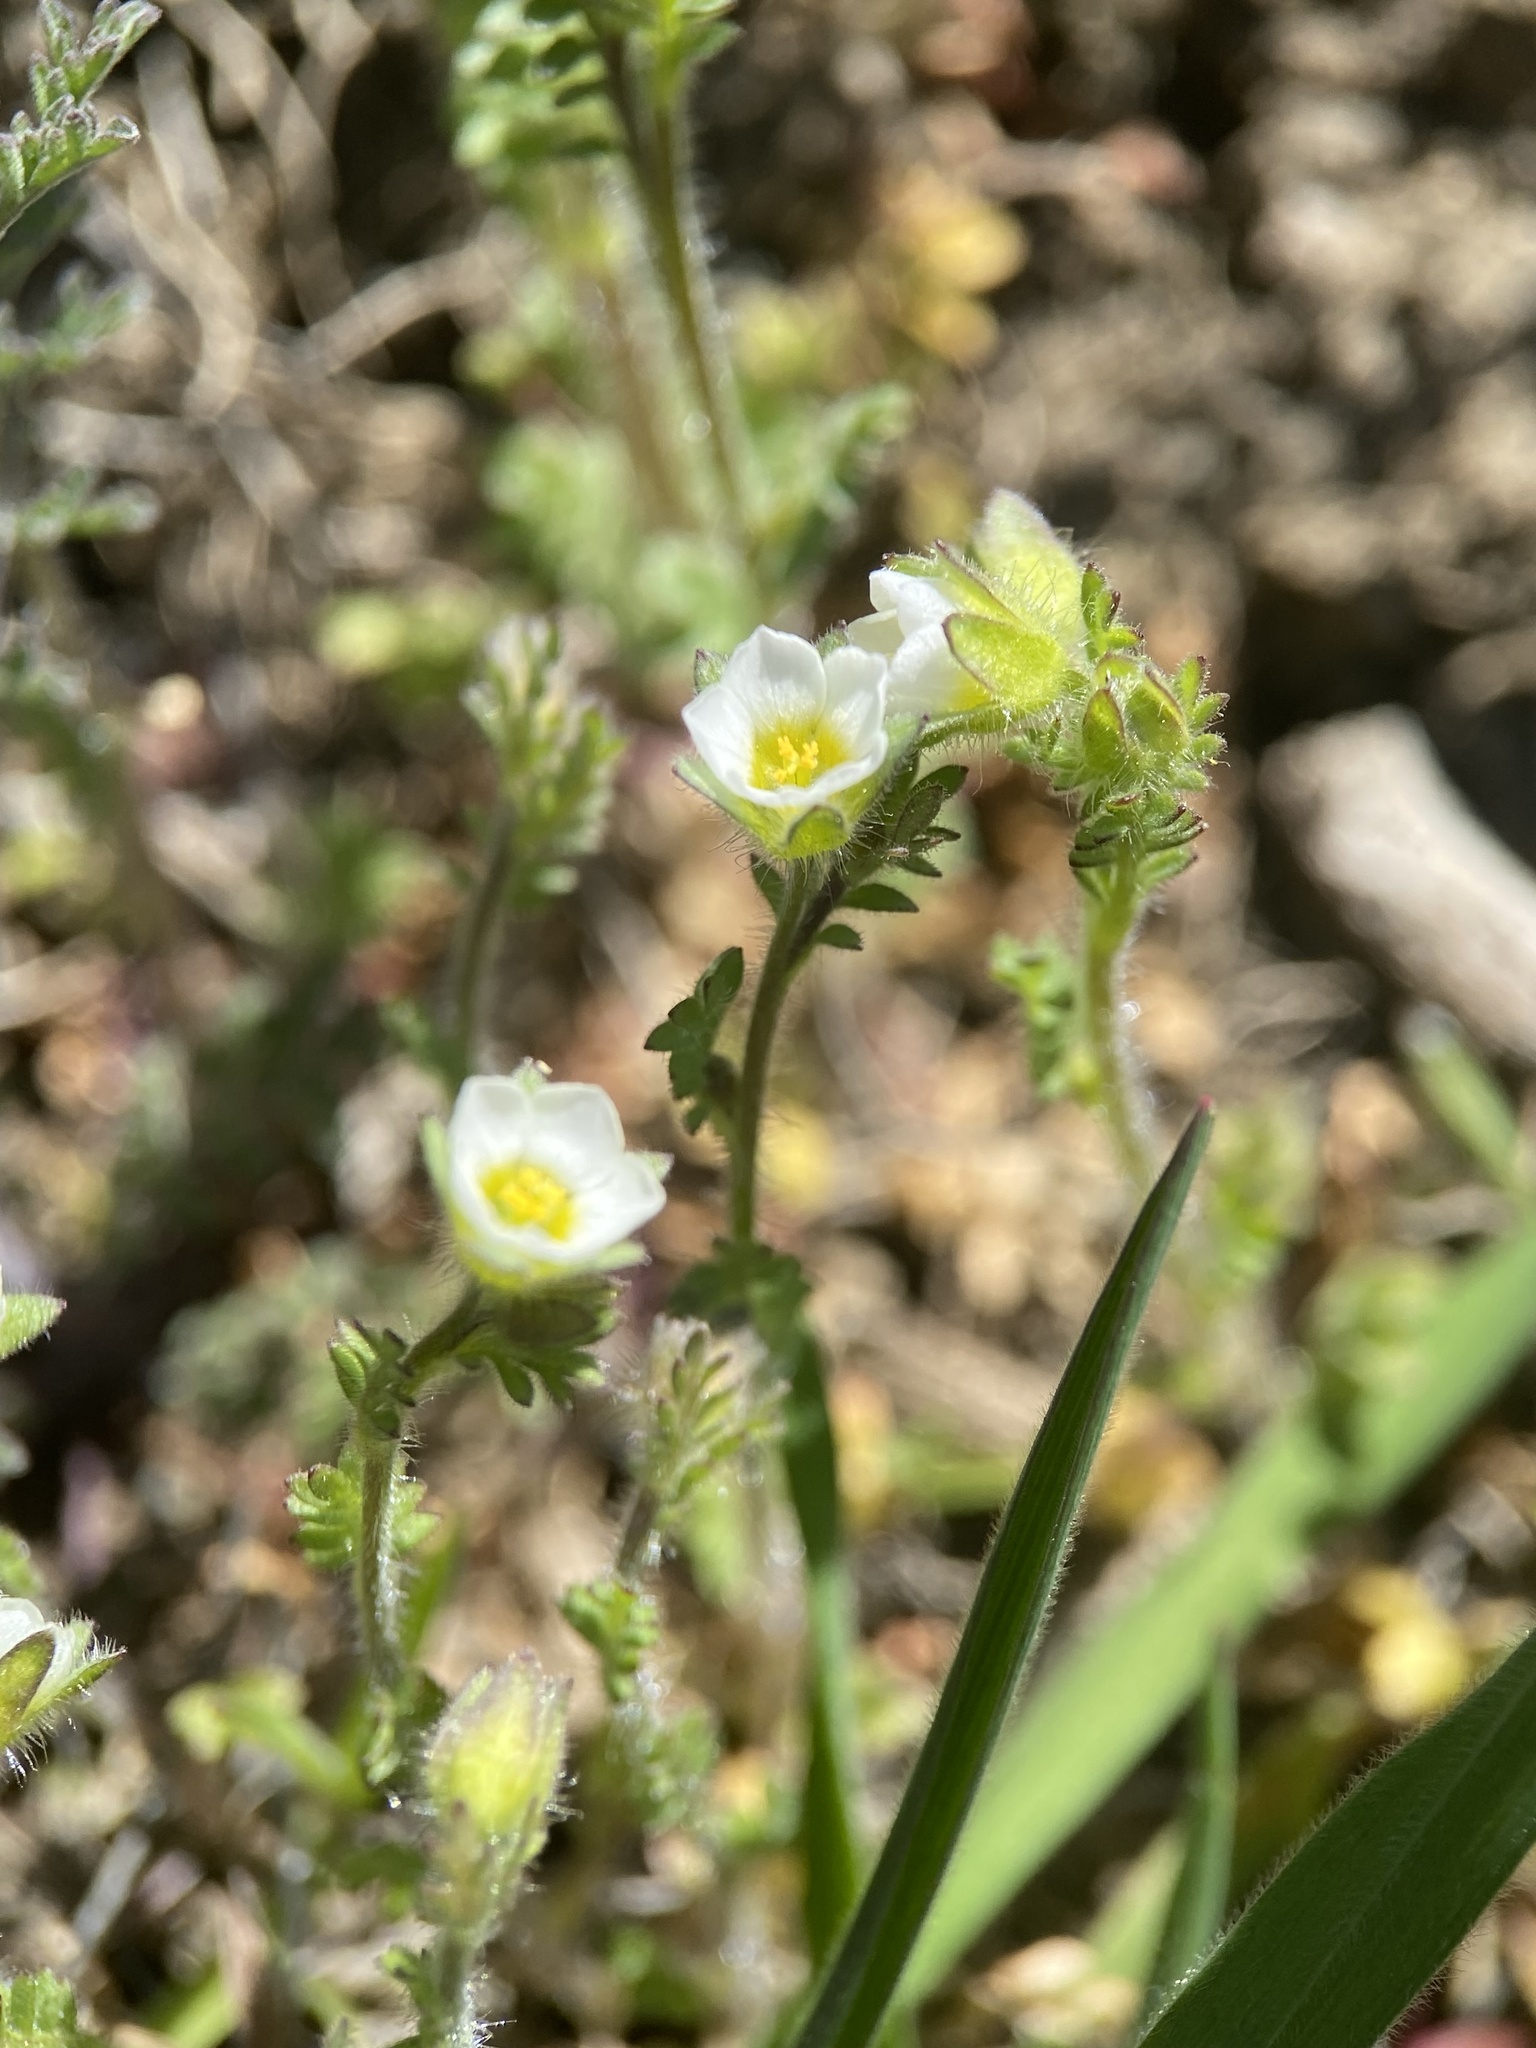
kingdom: Plantae
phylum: Tracheophyta
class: Magnoliopsida
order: Ericales
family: Polemoniaceae
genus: Polemonium
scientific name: Polemonium micranthum
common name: Annual jacob's-ladder
